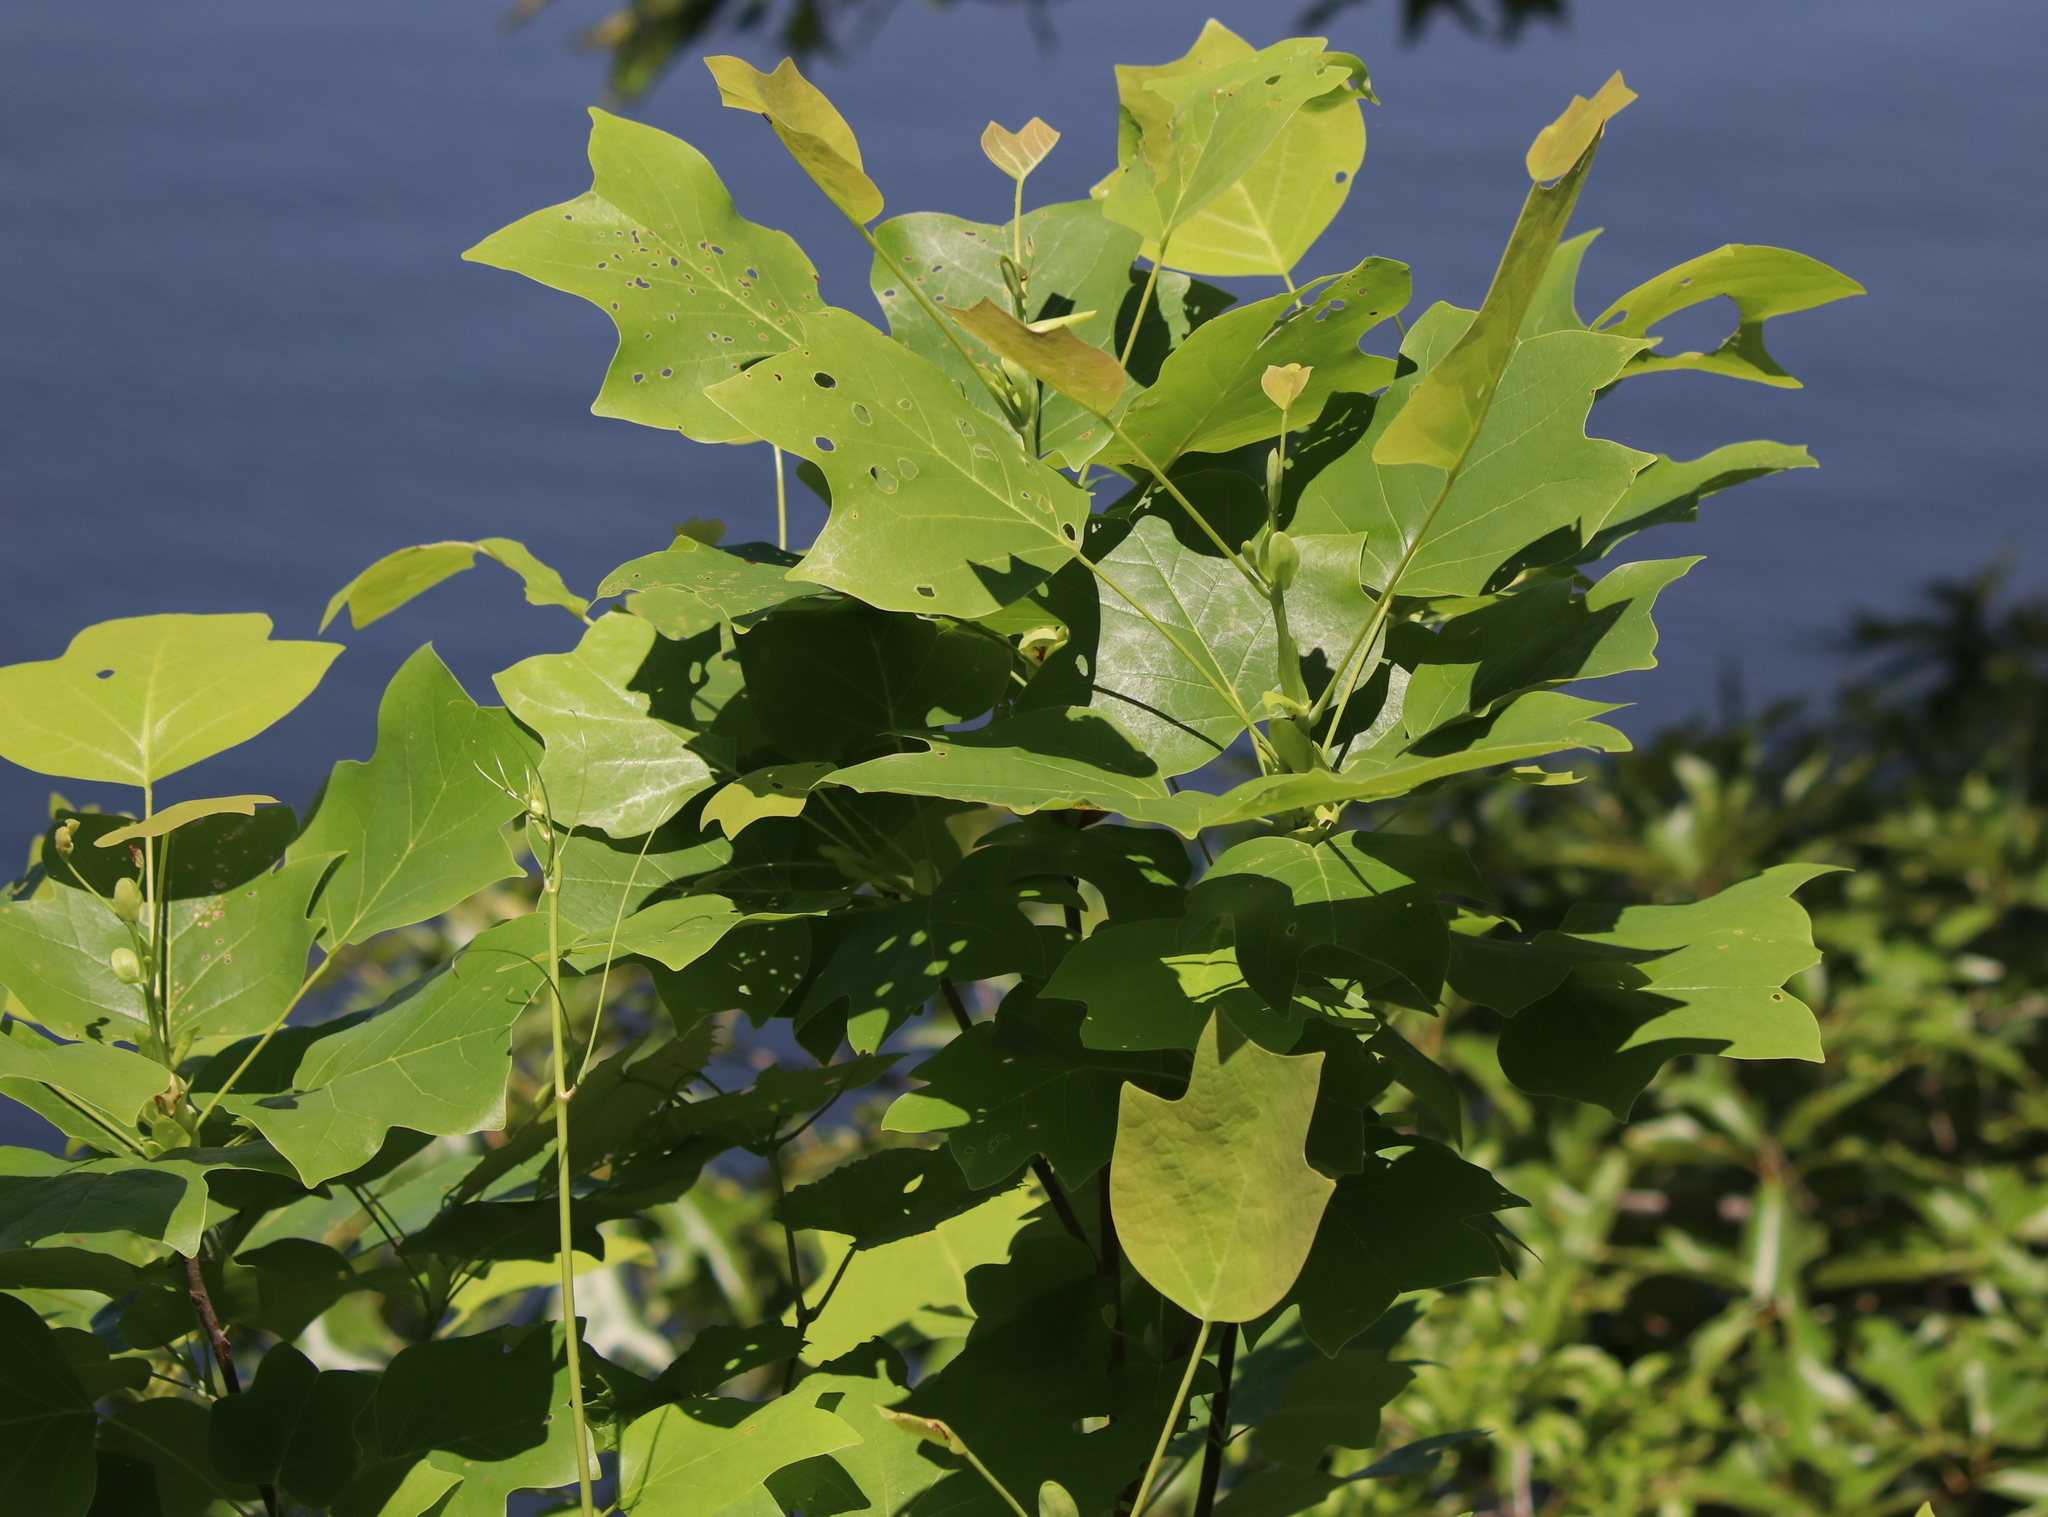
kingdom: Plantae
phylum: Tracheophyta
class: Magnoliopsida
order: Magnoliales
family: Magnoliaceae
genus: Liriodendron
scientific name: Liriodendron tulipifera
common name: Tulip tree
